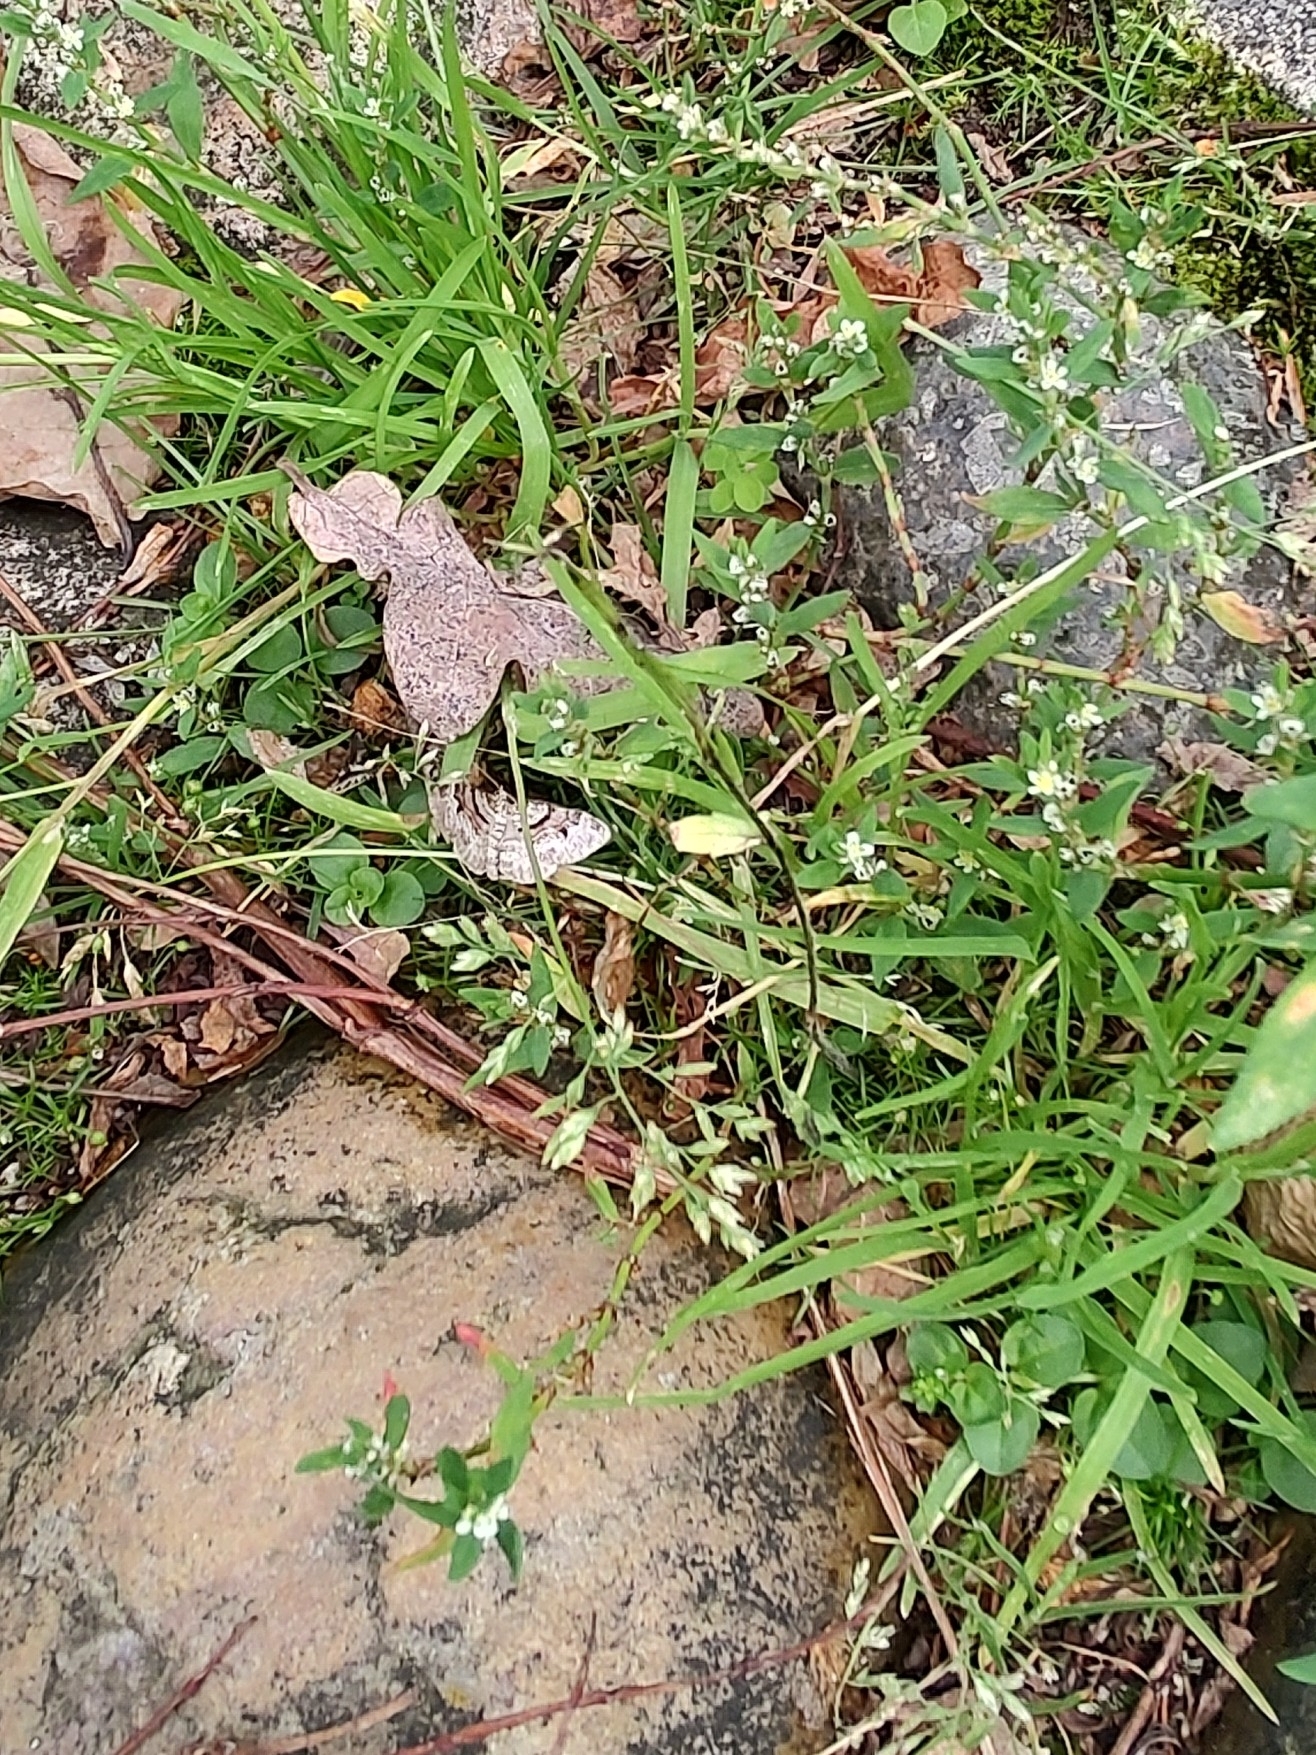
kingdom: Animalia
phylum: Arthropoda
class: Insecta
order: Lepidoptera
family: Geometridae
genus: Xanthorhoe
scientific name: Xanthorhoe designata
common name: Flame carpet
